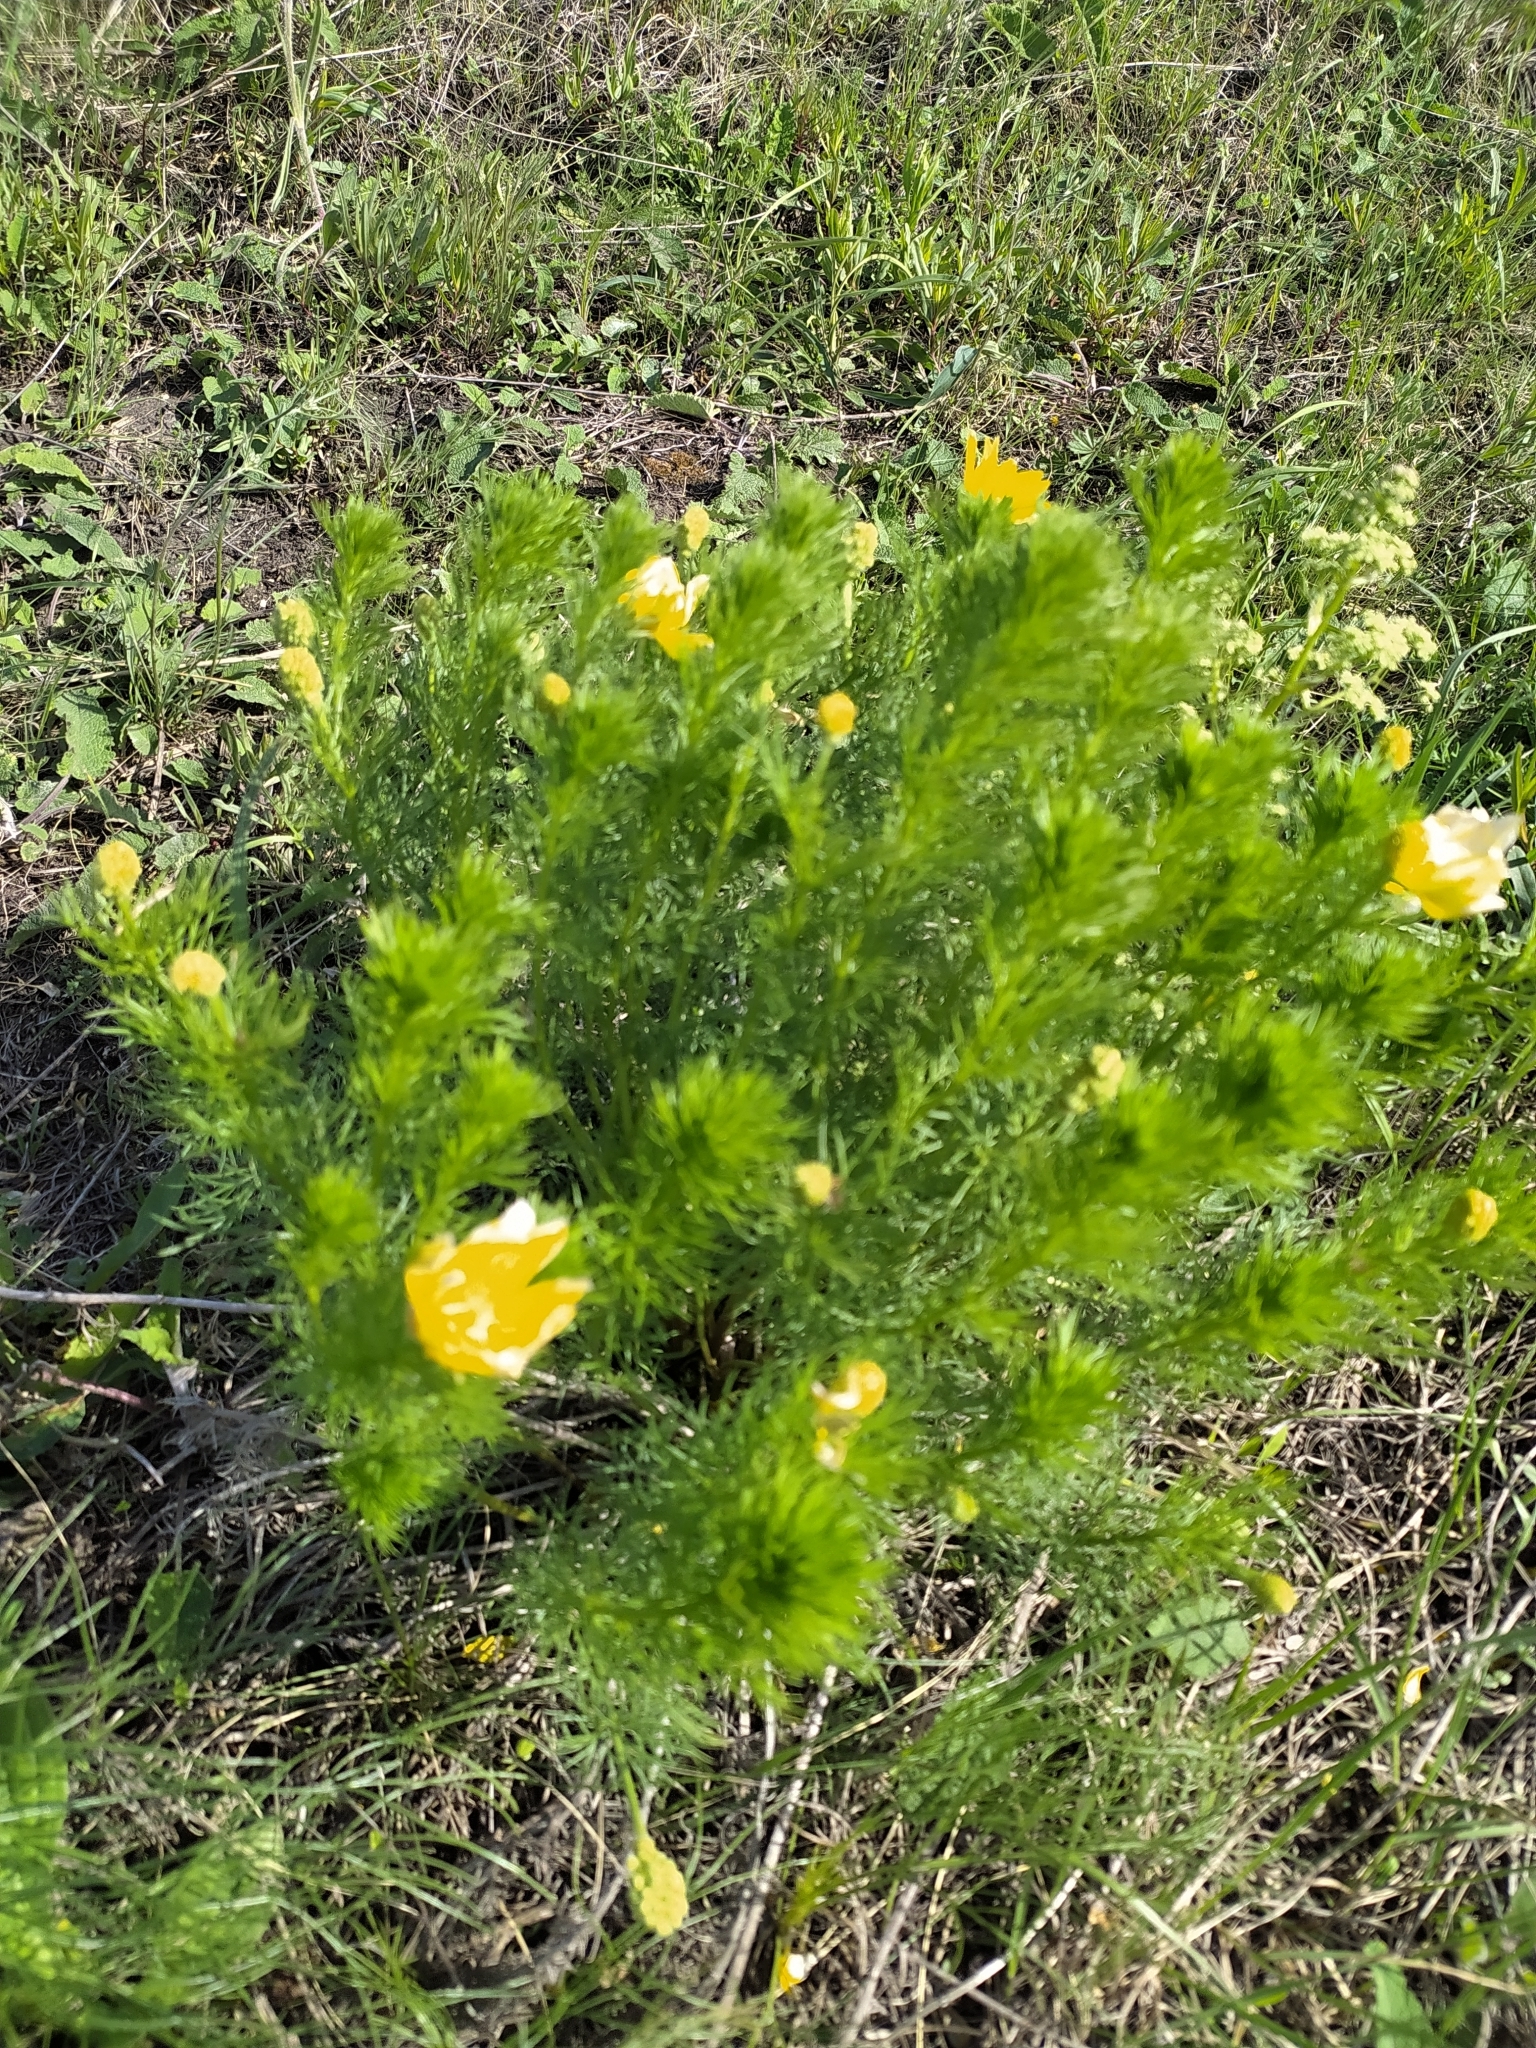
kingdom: Plantae
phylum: Tracheophyta
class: Magnoliopsida
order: Ranunculales
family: Ranunculaceae
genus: Adonis
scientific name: Adonis vernalis
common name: Yellow pheasants-eye
